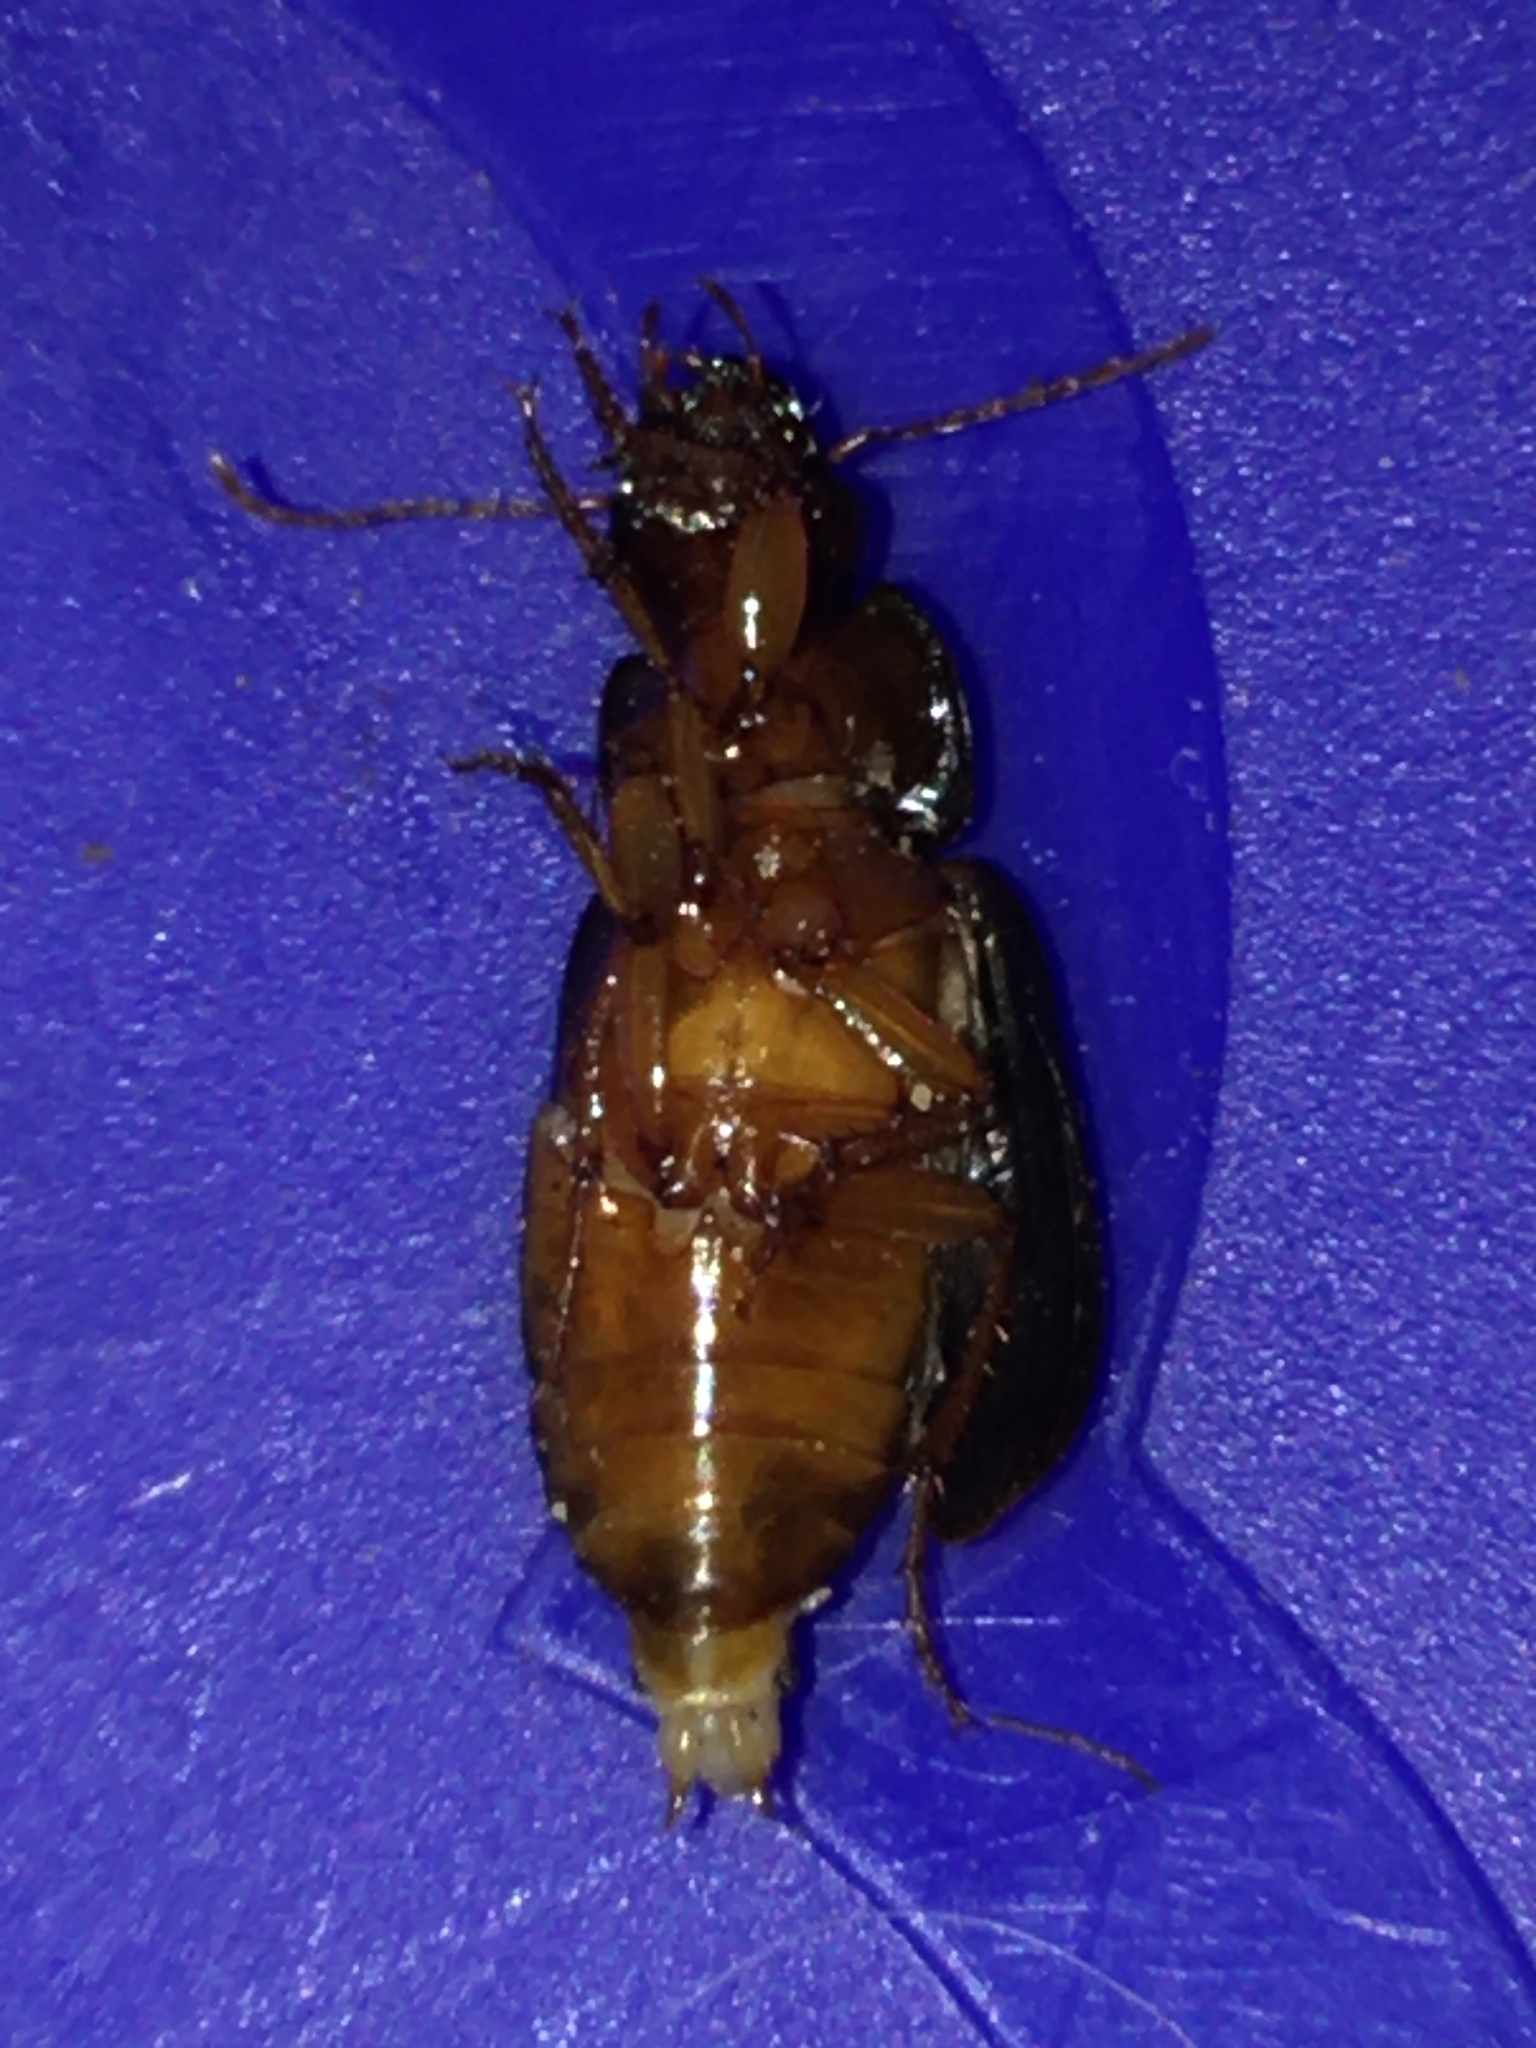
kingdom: Animalia
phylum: Arthropoda
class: Insecta
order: Coleoptera
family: Carabidae
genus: Selenophorus
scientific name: Selenophorus opalinus
